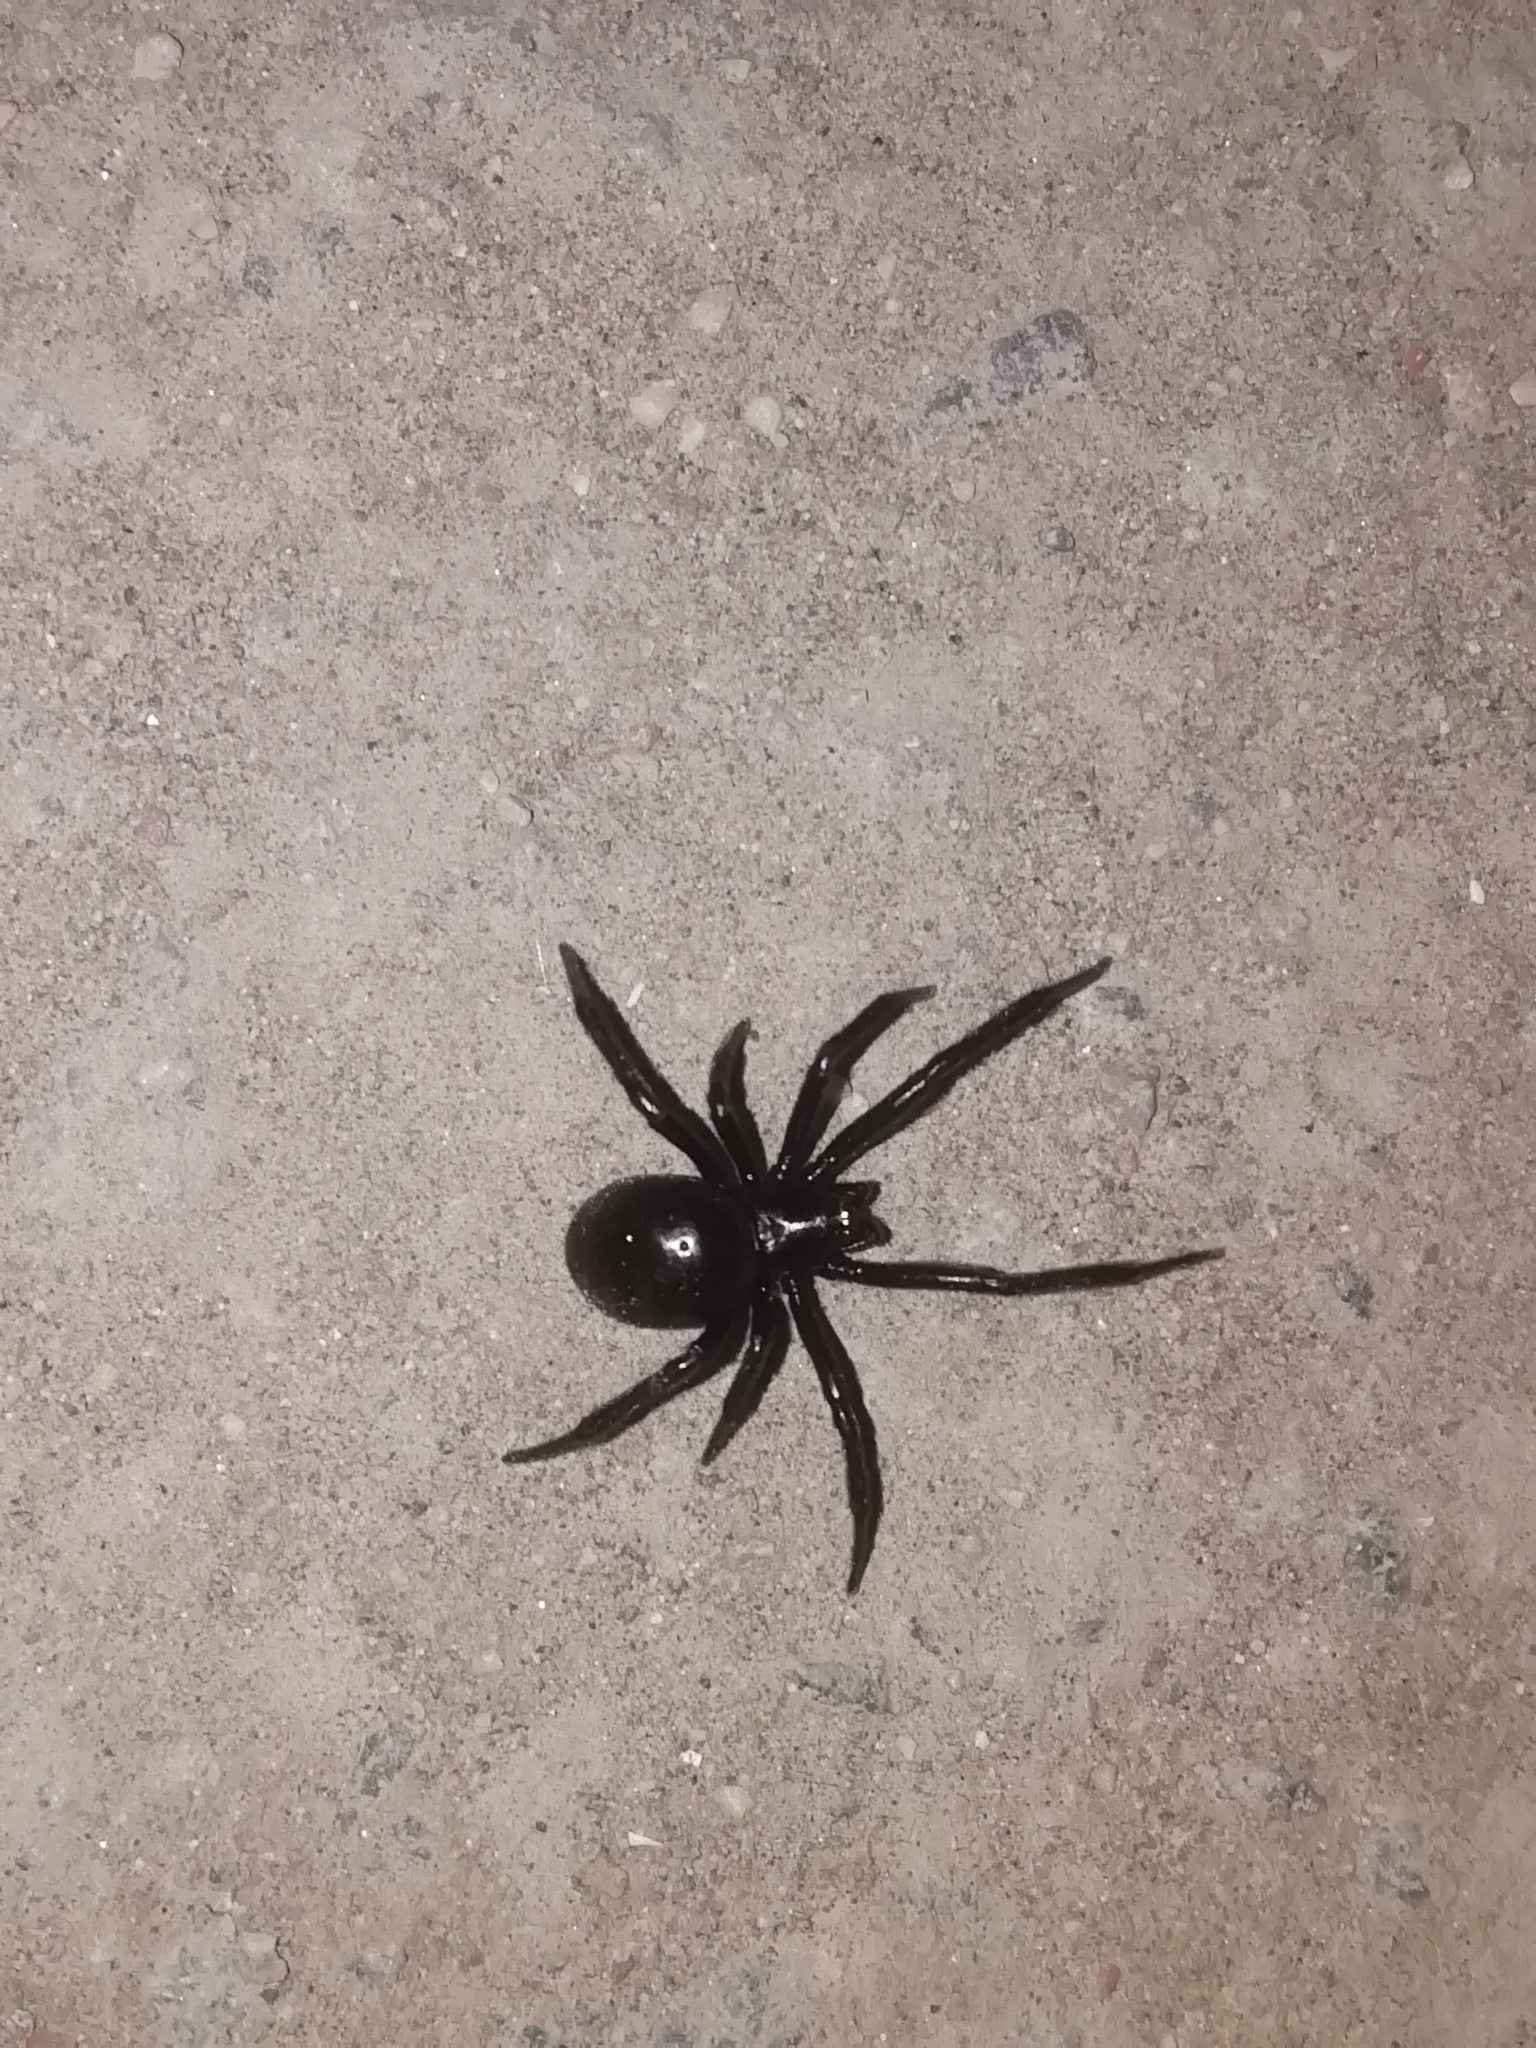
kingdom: Animalia
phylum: Arthropoda
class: Arachnida
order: Araneae
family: Theridiidae
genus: Steatoda
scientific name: Steatoda paykulliana
